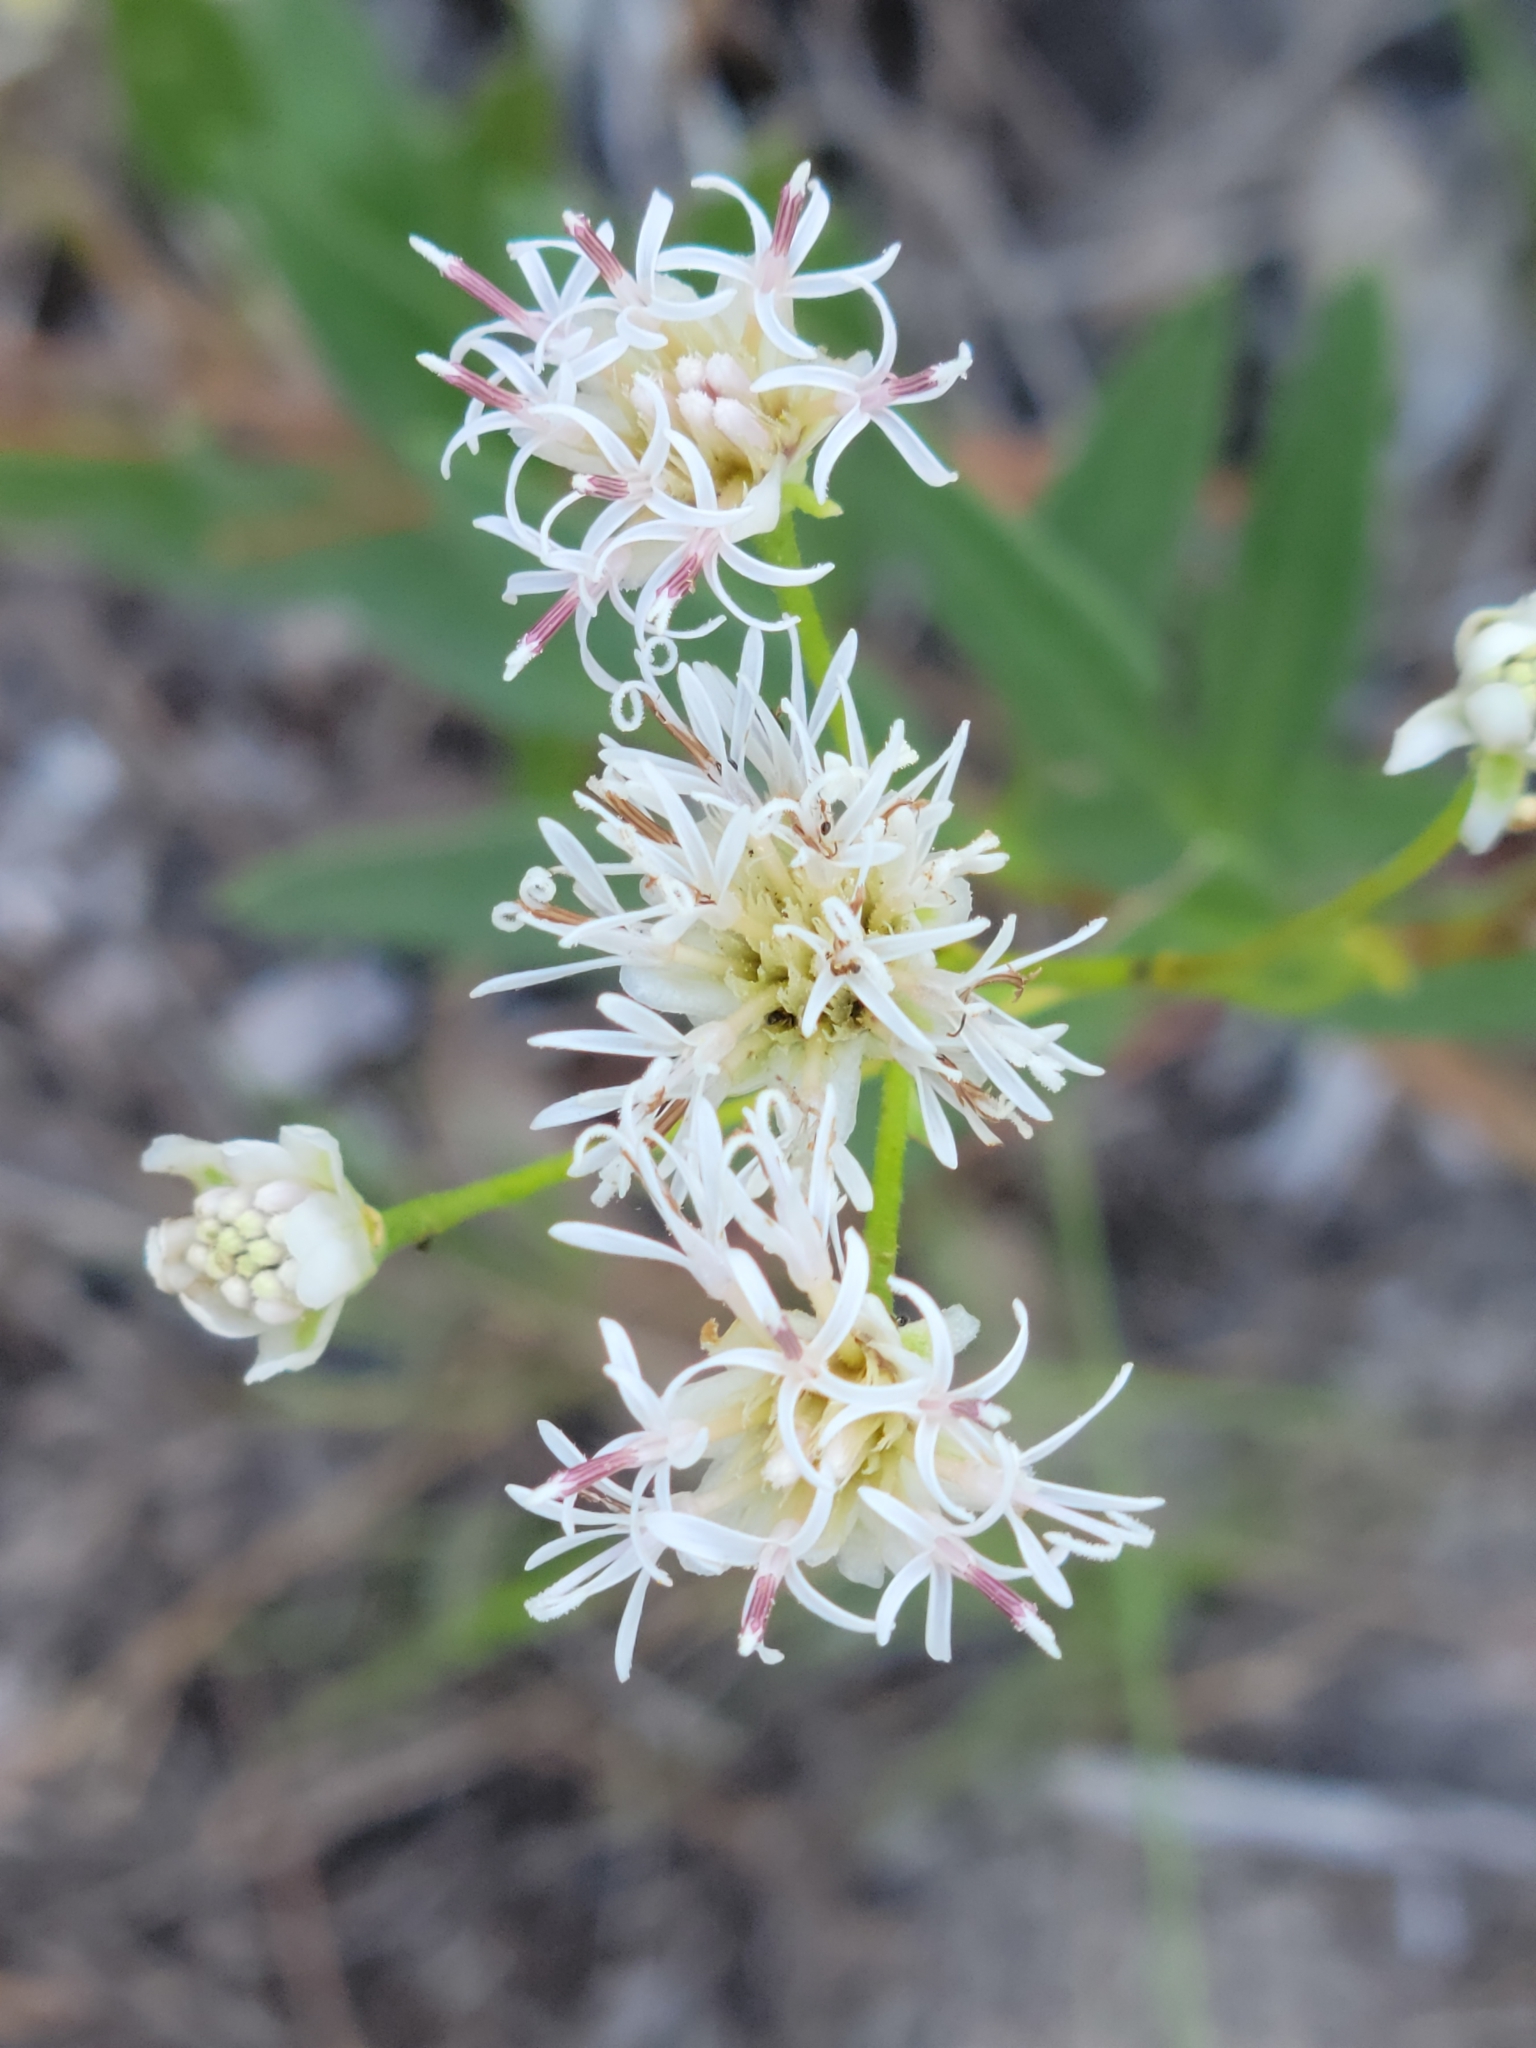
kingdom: Plantae
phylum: Tracheophyta
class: Magnoliopsida
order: Asterales
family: Asteraceae
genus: Palafoxia
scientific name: Palafoxia integrifolia
